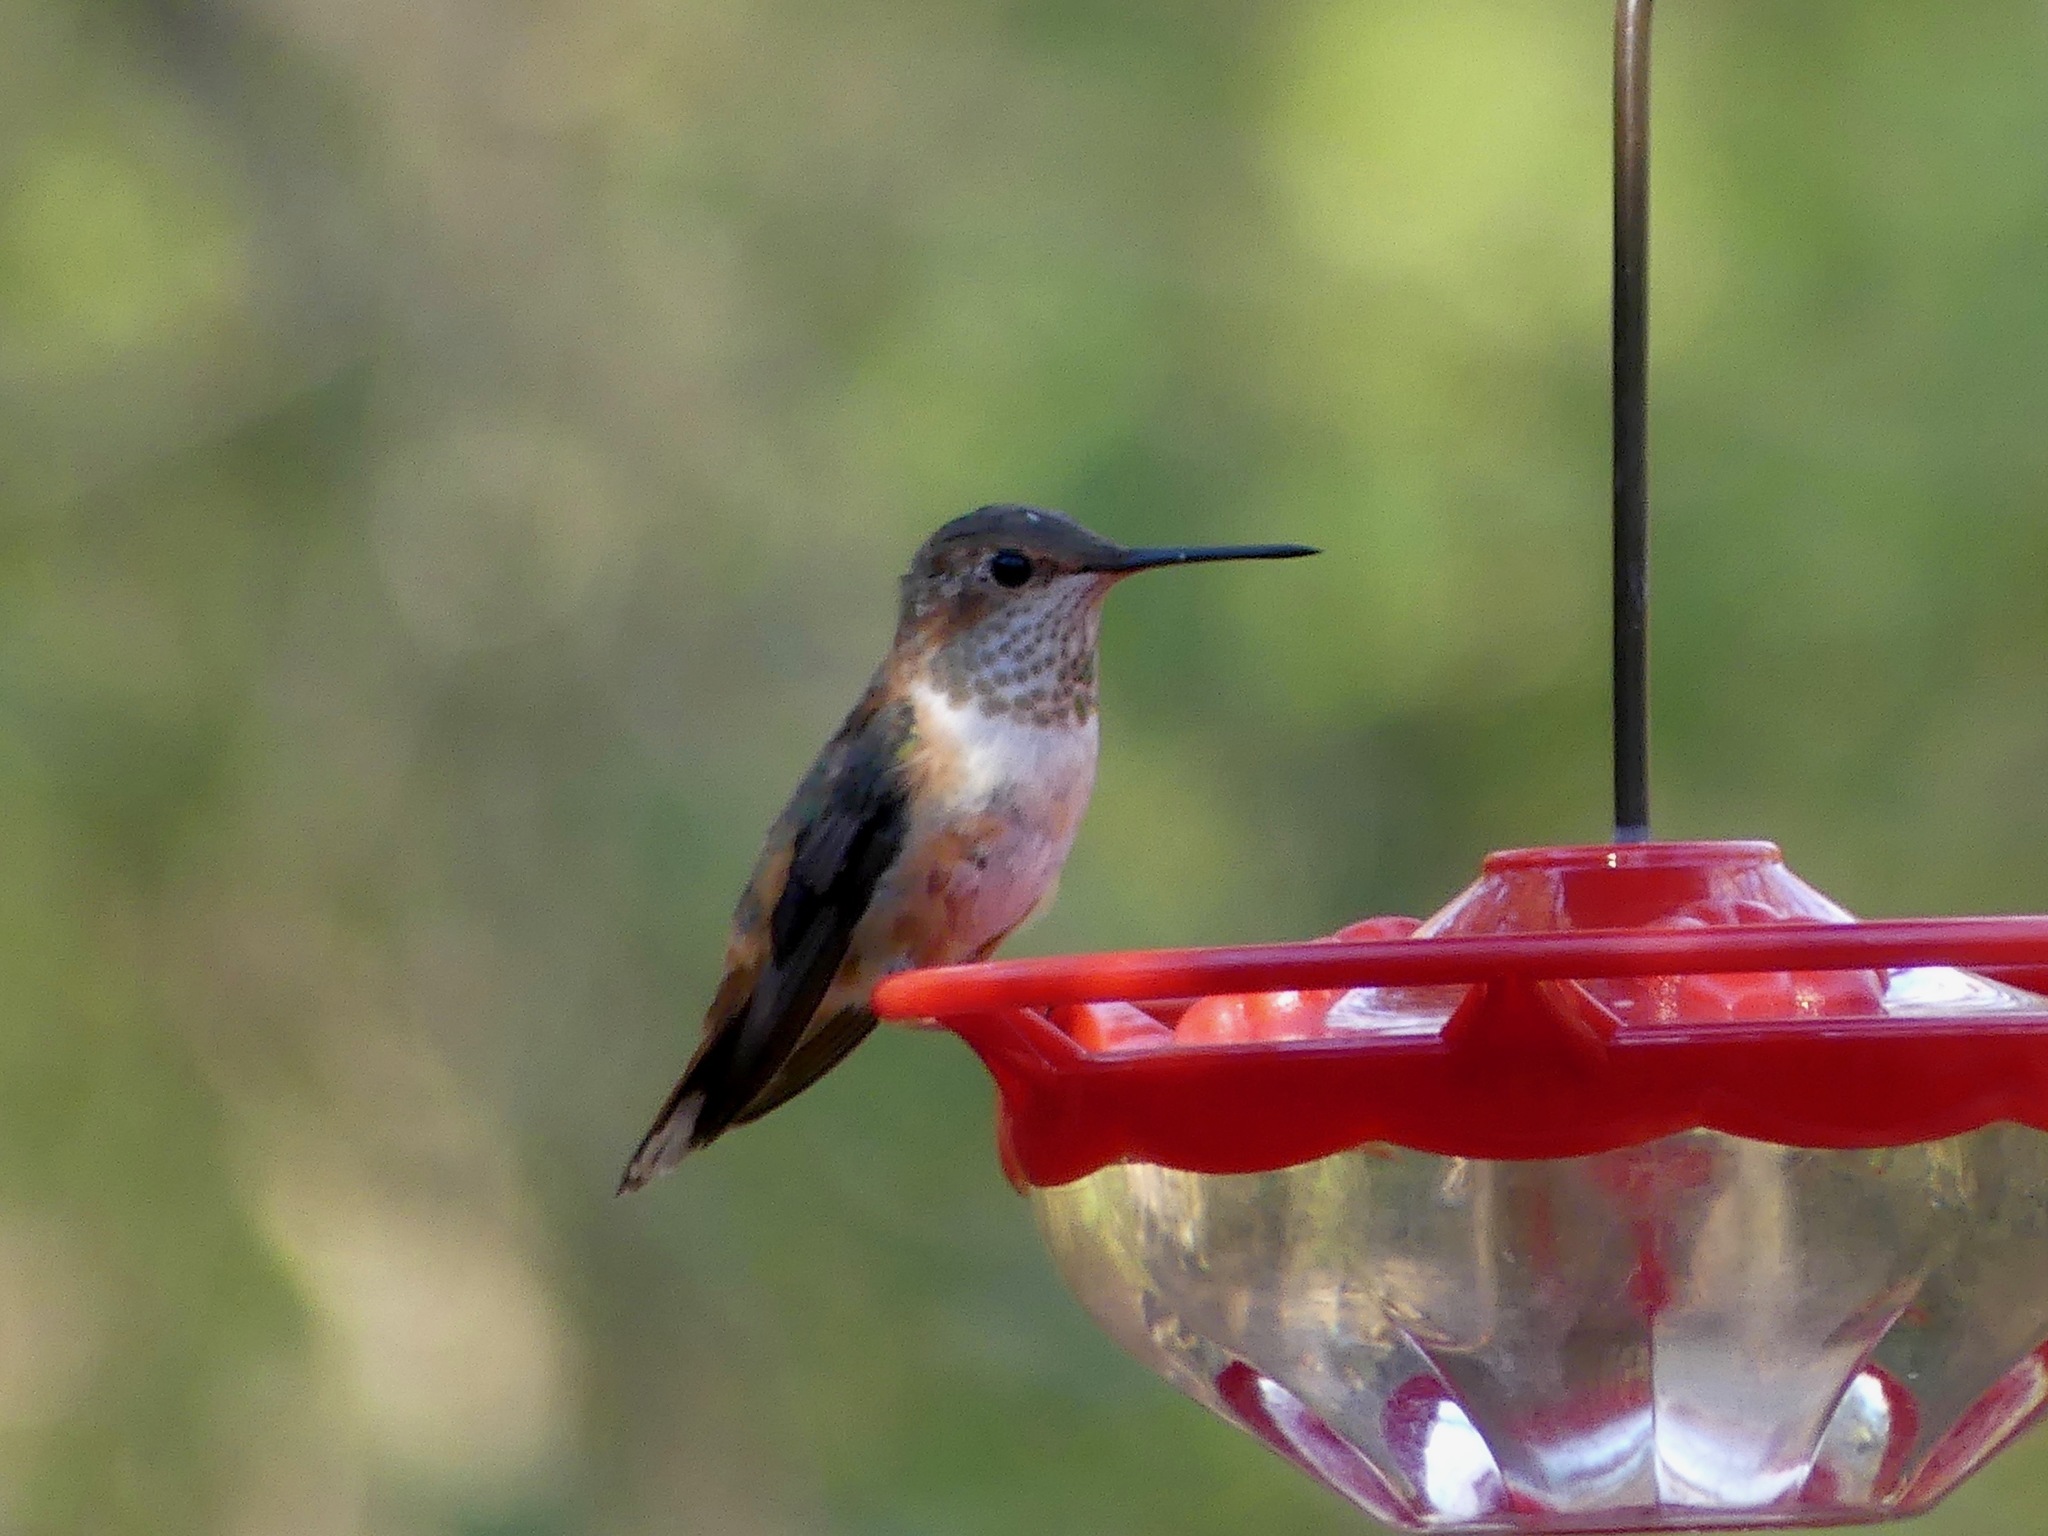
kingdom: Animalia
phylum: Chordata
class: Aves
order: Apodiformes
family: Trochilidae
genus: Selasphorus
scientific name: Selasphorus rufus
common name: Rufous hummingbird
